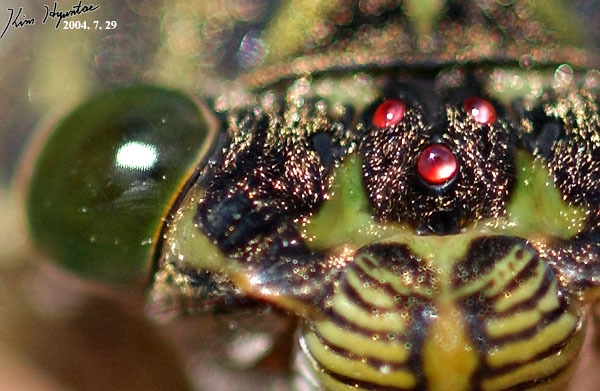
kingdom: Animalia
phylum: Arthropoda
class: Insecta
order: Hemiptera
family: Cicadidae
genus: Hyalessa
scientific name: Hyalessa maculaticollis
